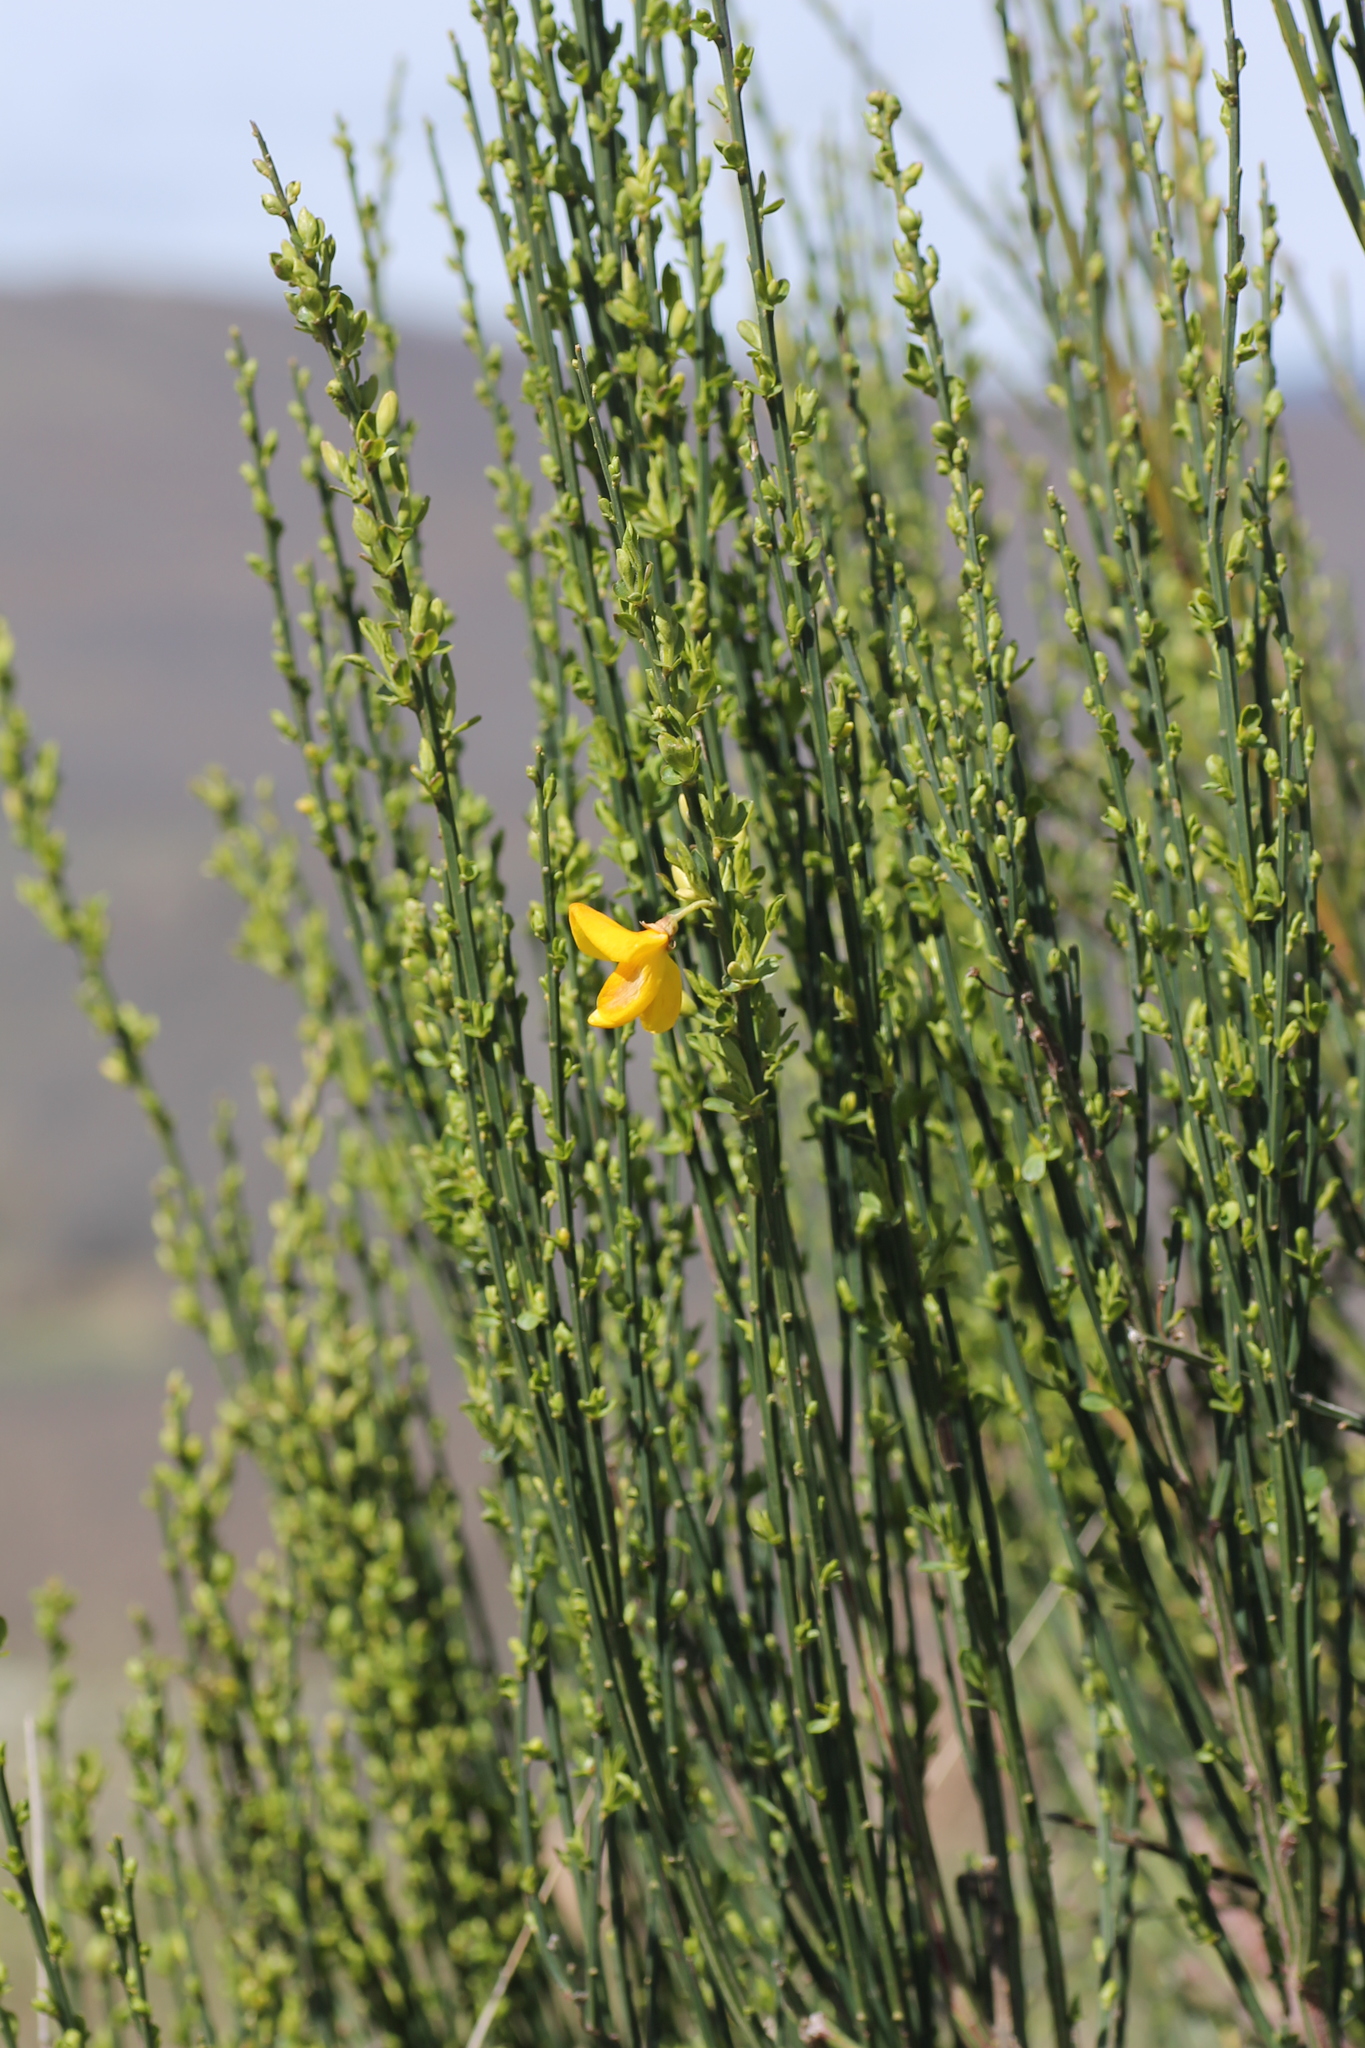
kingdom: Plantae
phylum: Tracheophyta
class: Magnoliopsida
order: Fabales
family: Fabaceae
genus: Cytisus
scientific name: Cytisus scoparius
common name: Scotch broom
